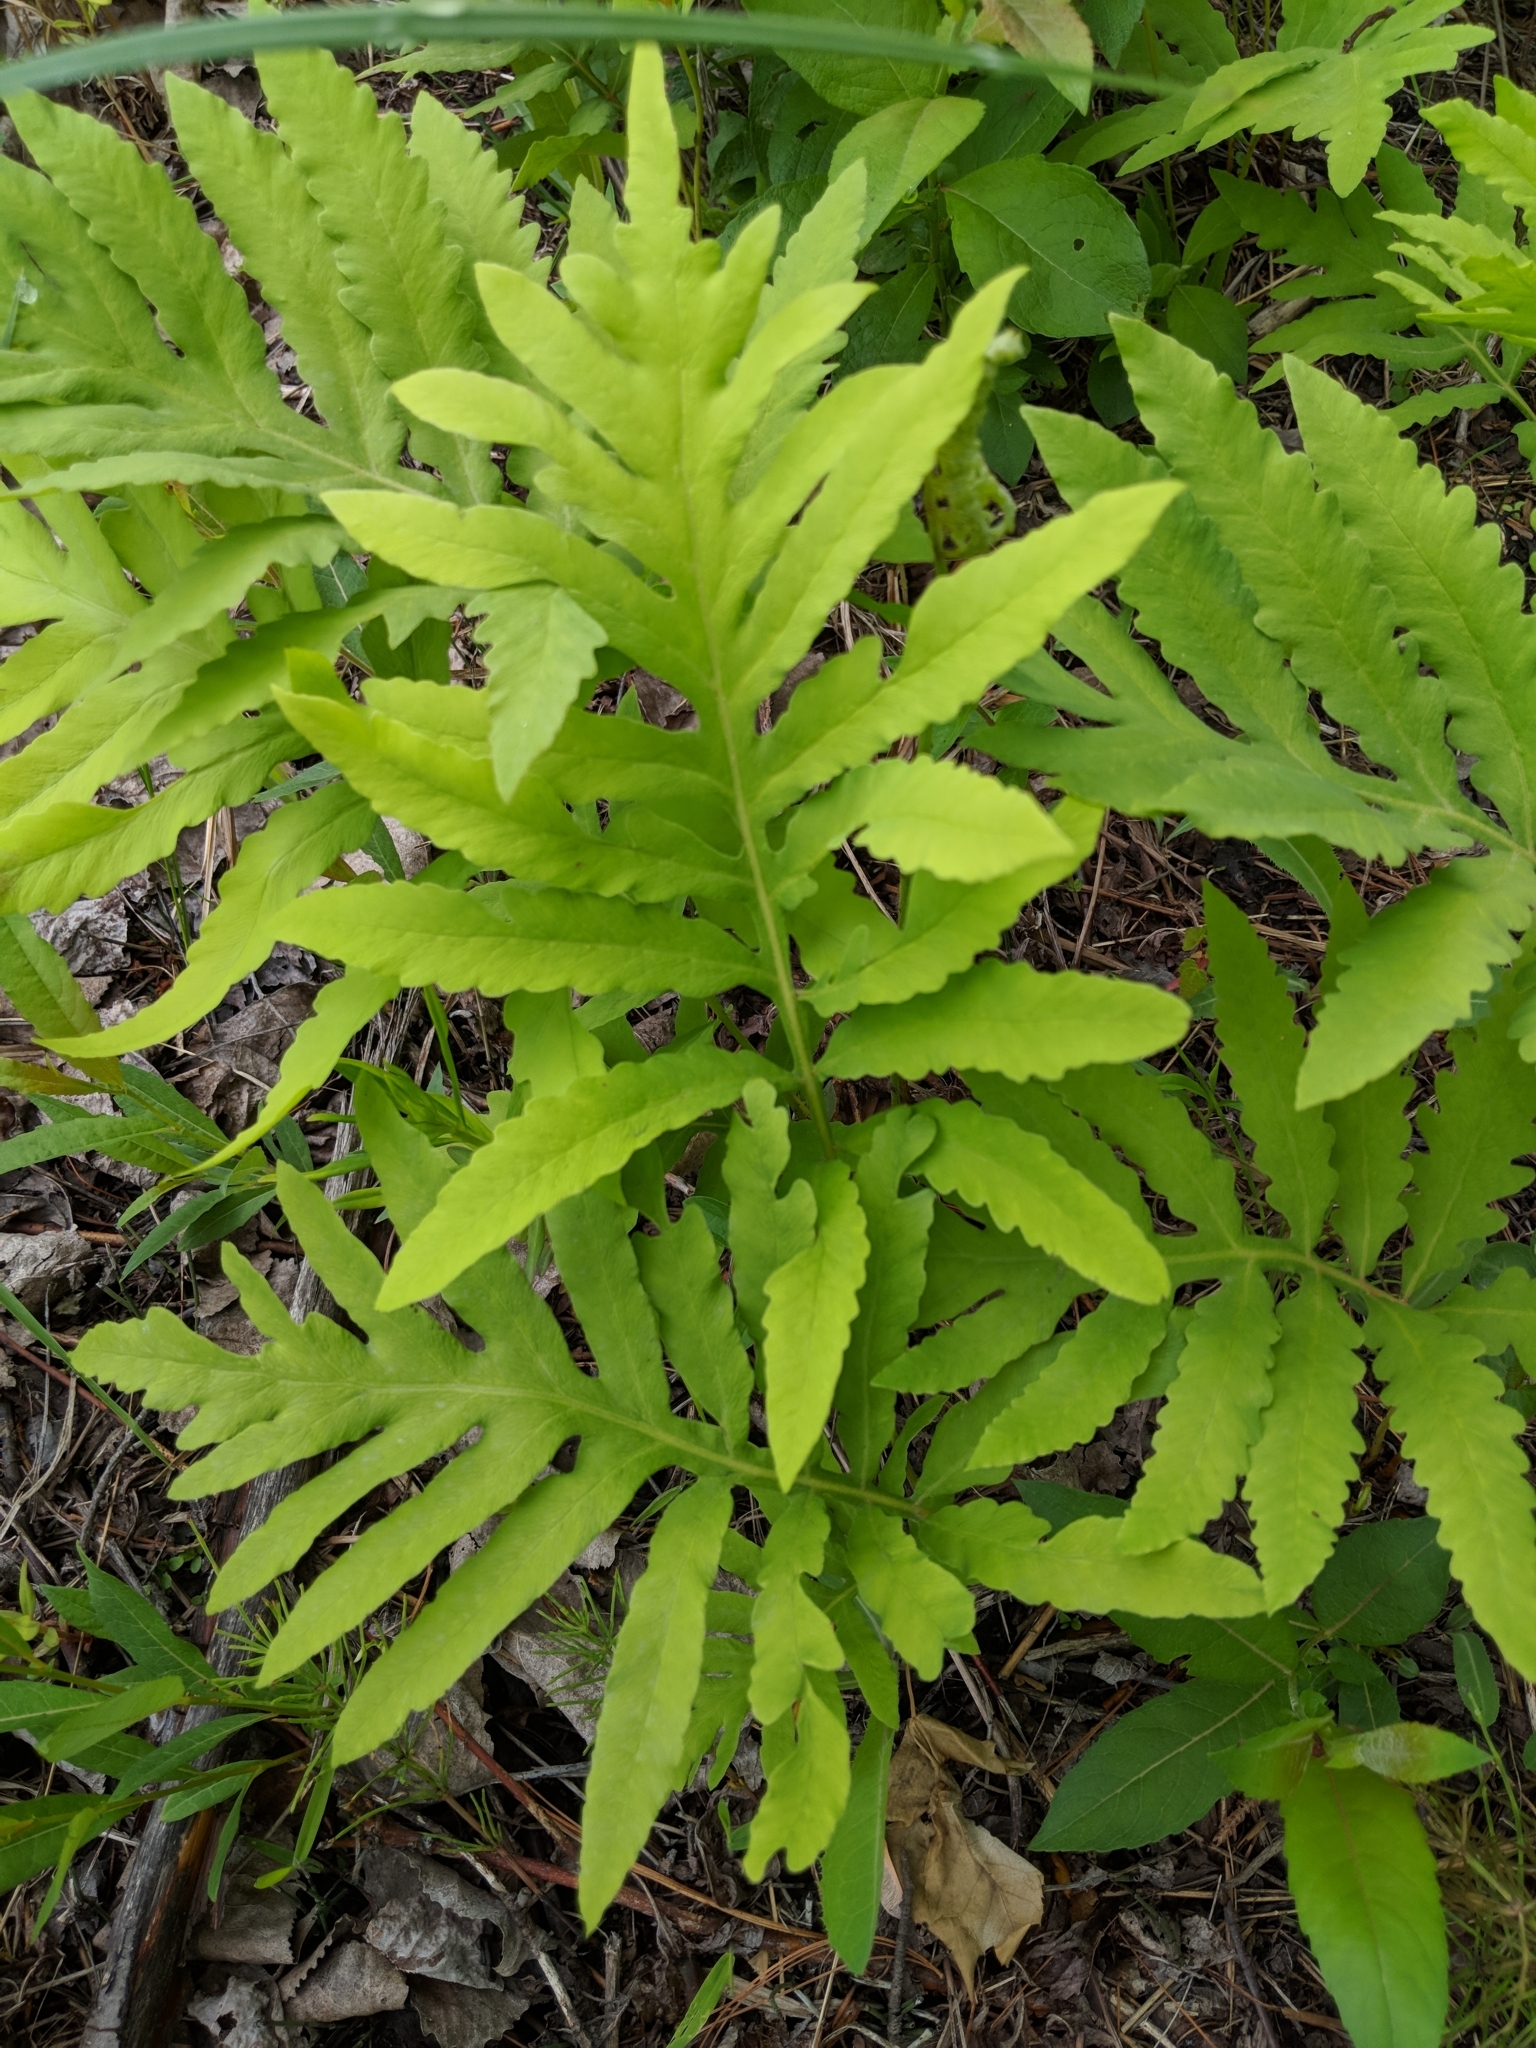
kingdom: Plantae
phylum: Tracheophyta
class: Polypodiopsida
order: Polypodiales
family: Onocleaceae
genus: Onoclea
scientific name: Onoclea sensibilis
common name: Sensitive fern
